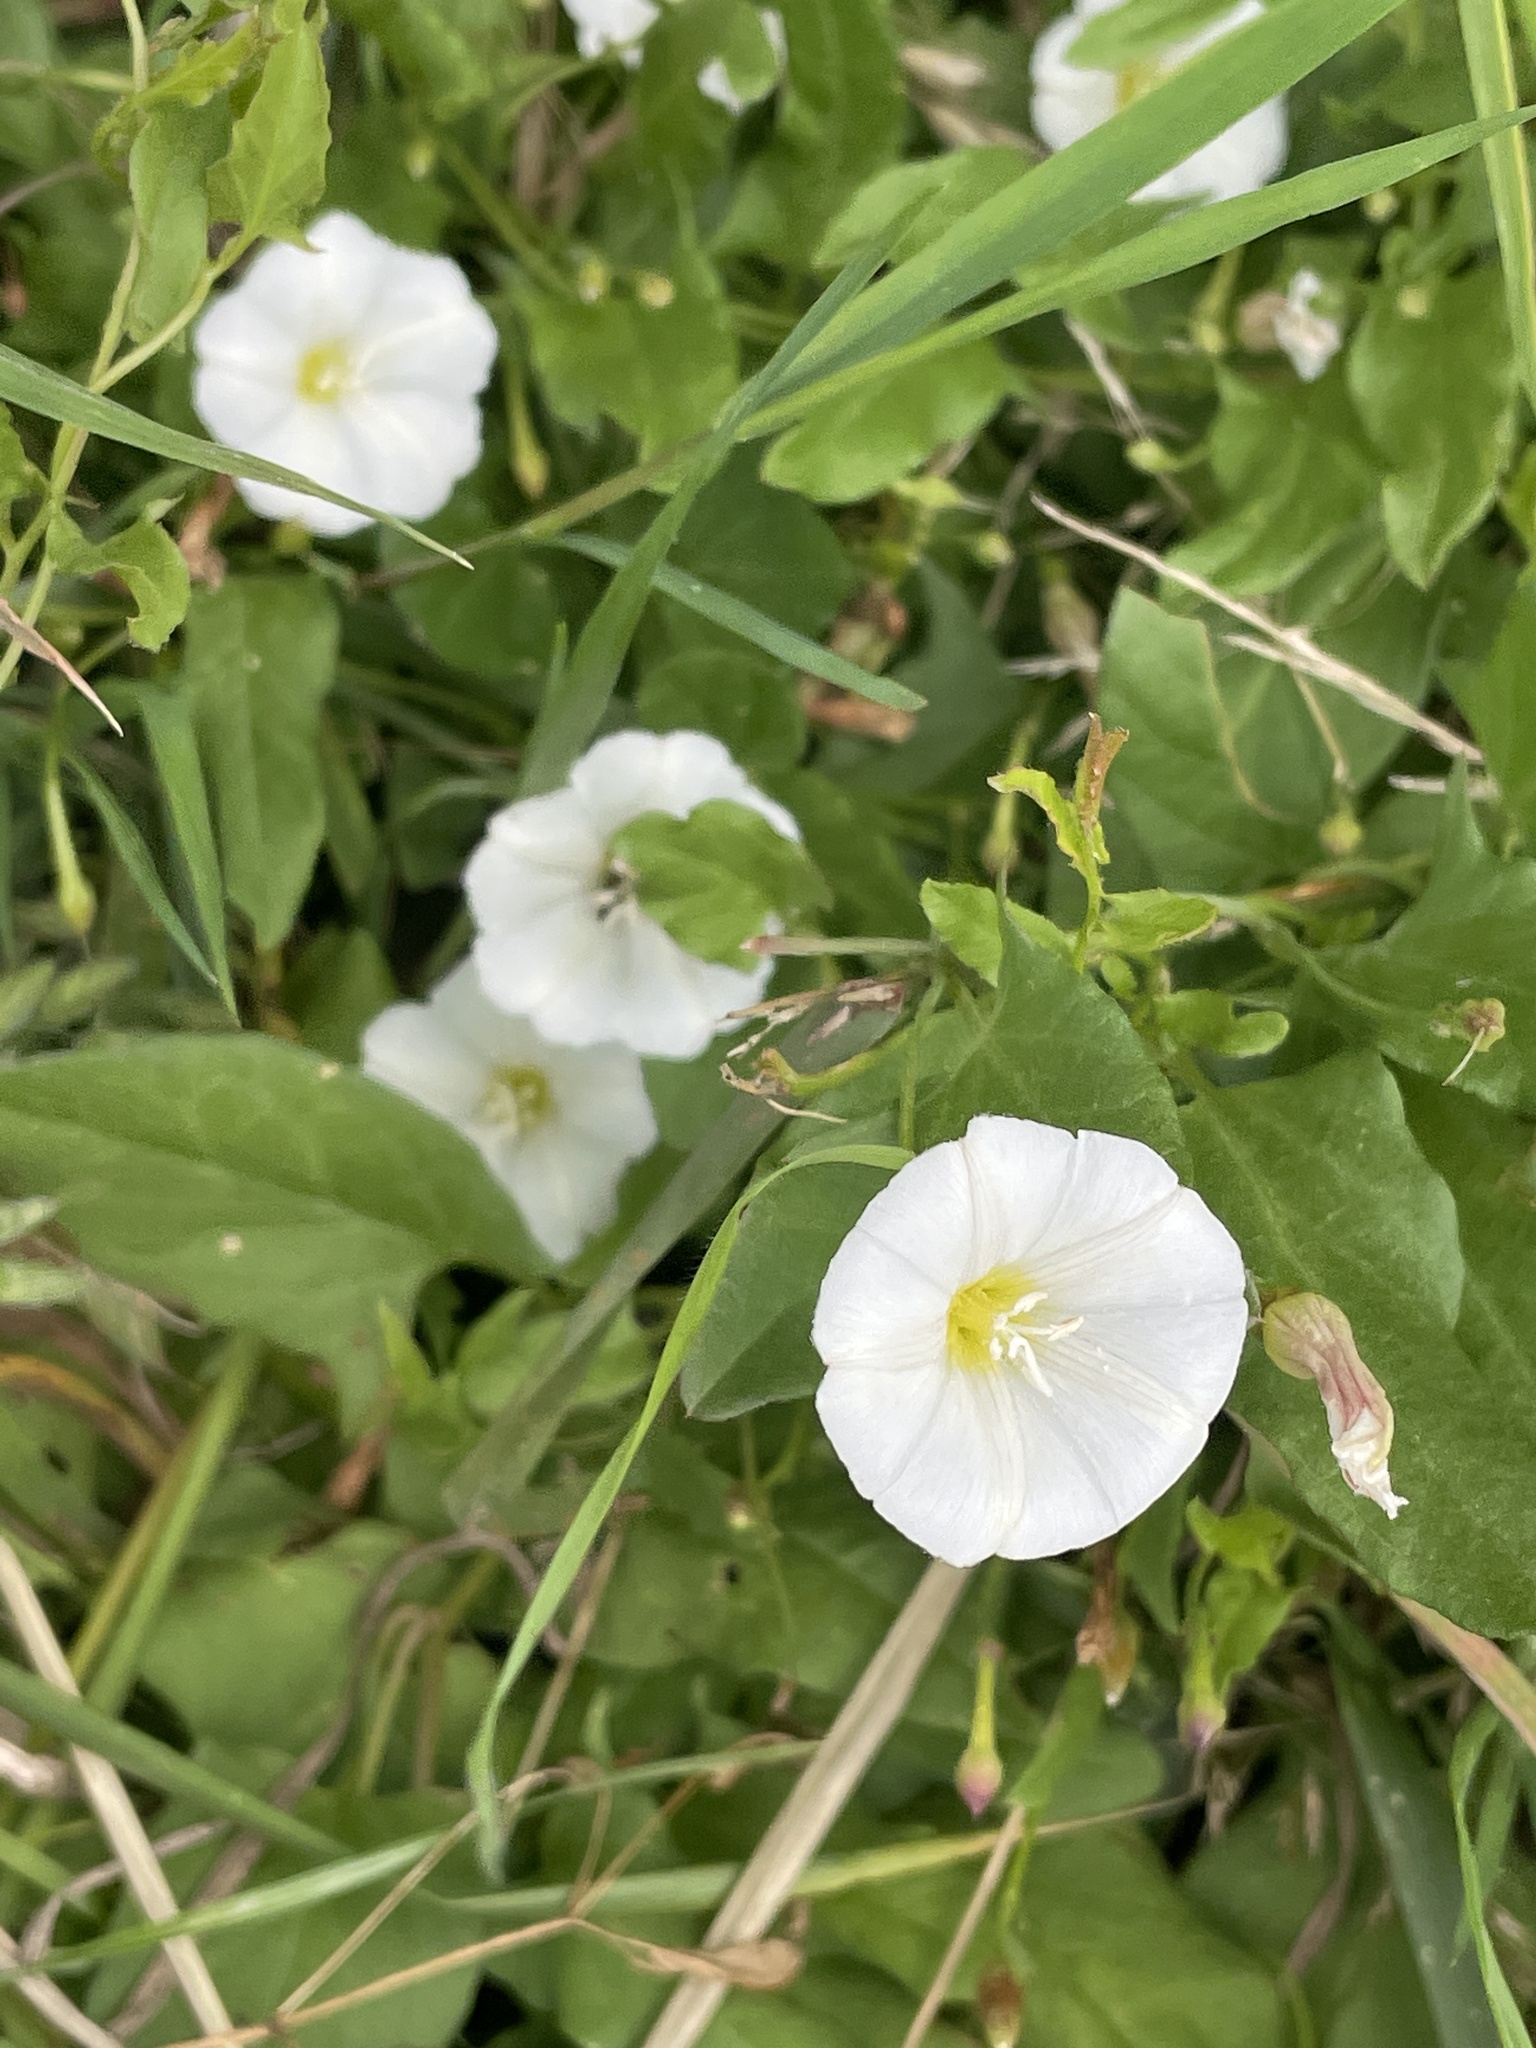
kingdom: Plantae
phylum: Tracheophyta
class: Magnoliopsida
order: Solanales
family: Convolvulaceae
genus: Convolvulus
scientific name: Convolvulus arvensis
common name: Field bindweed
